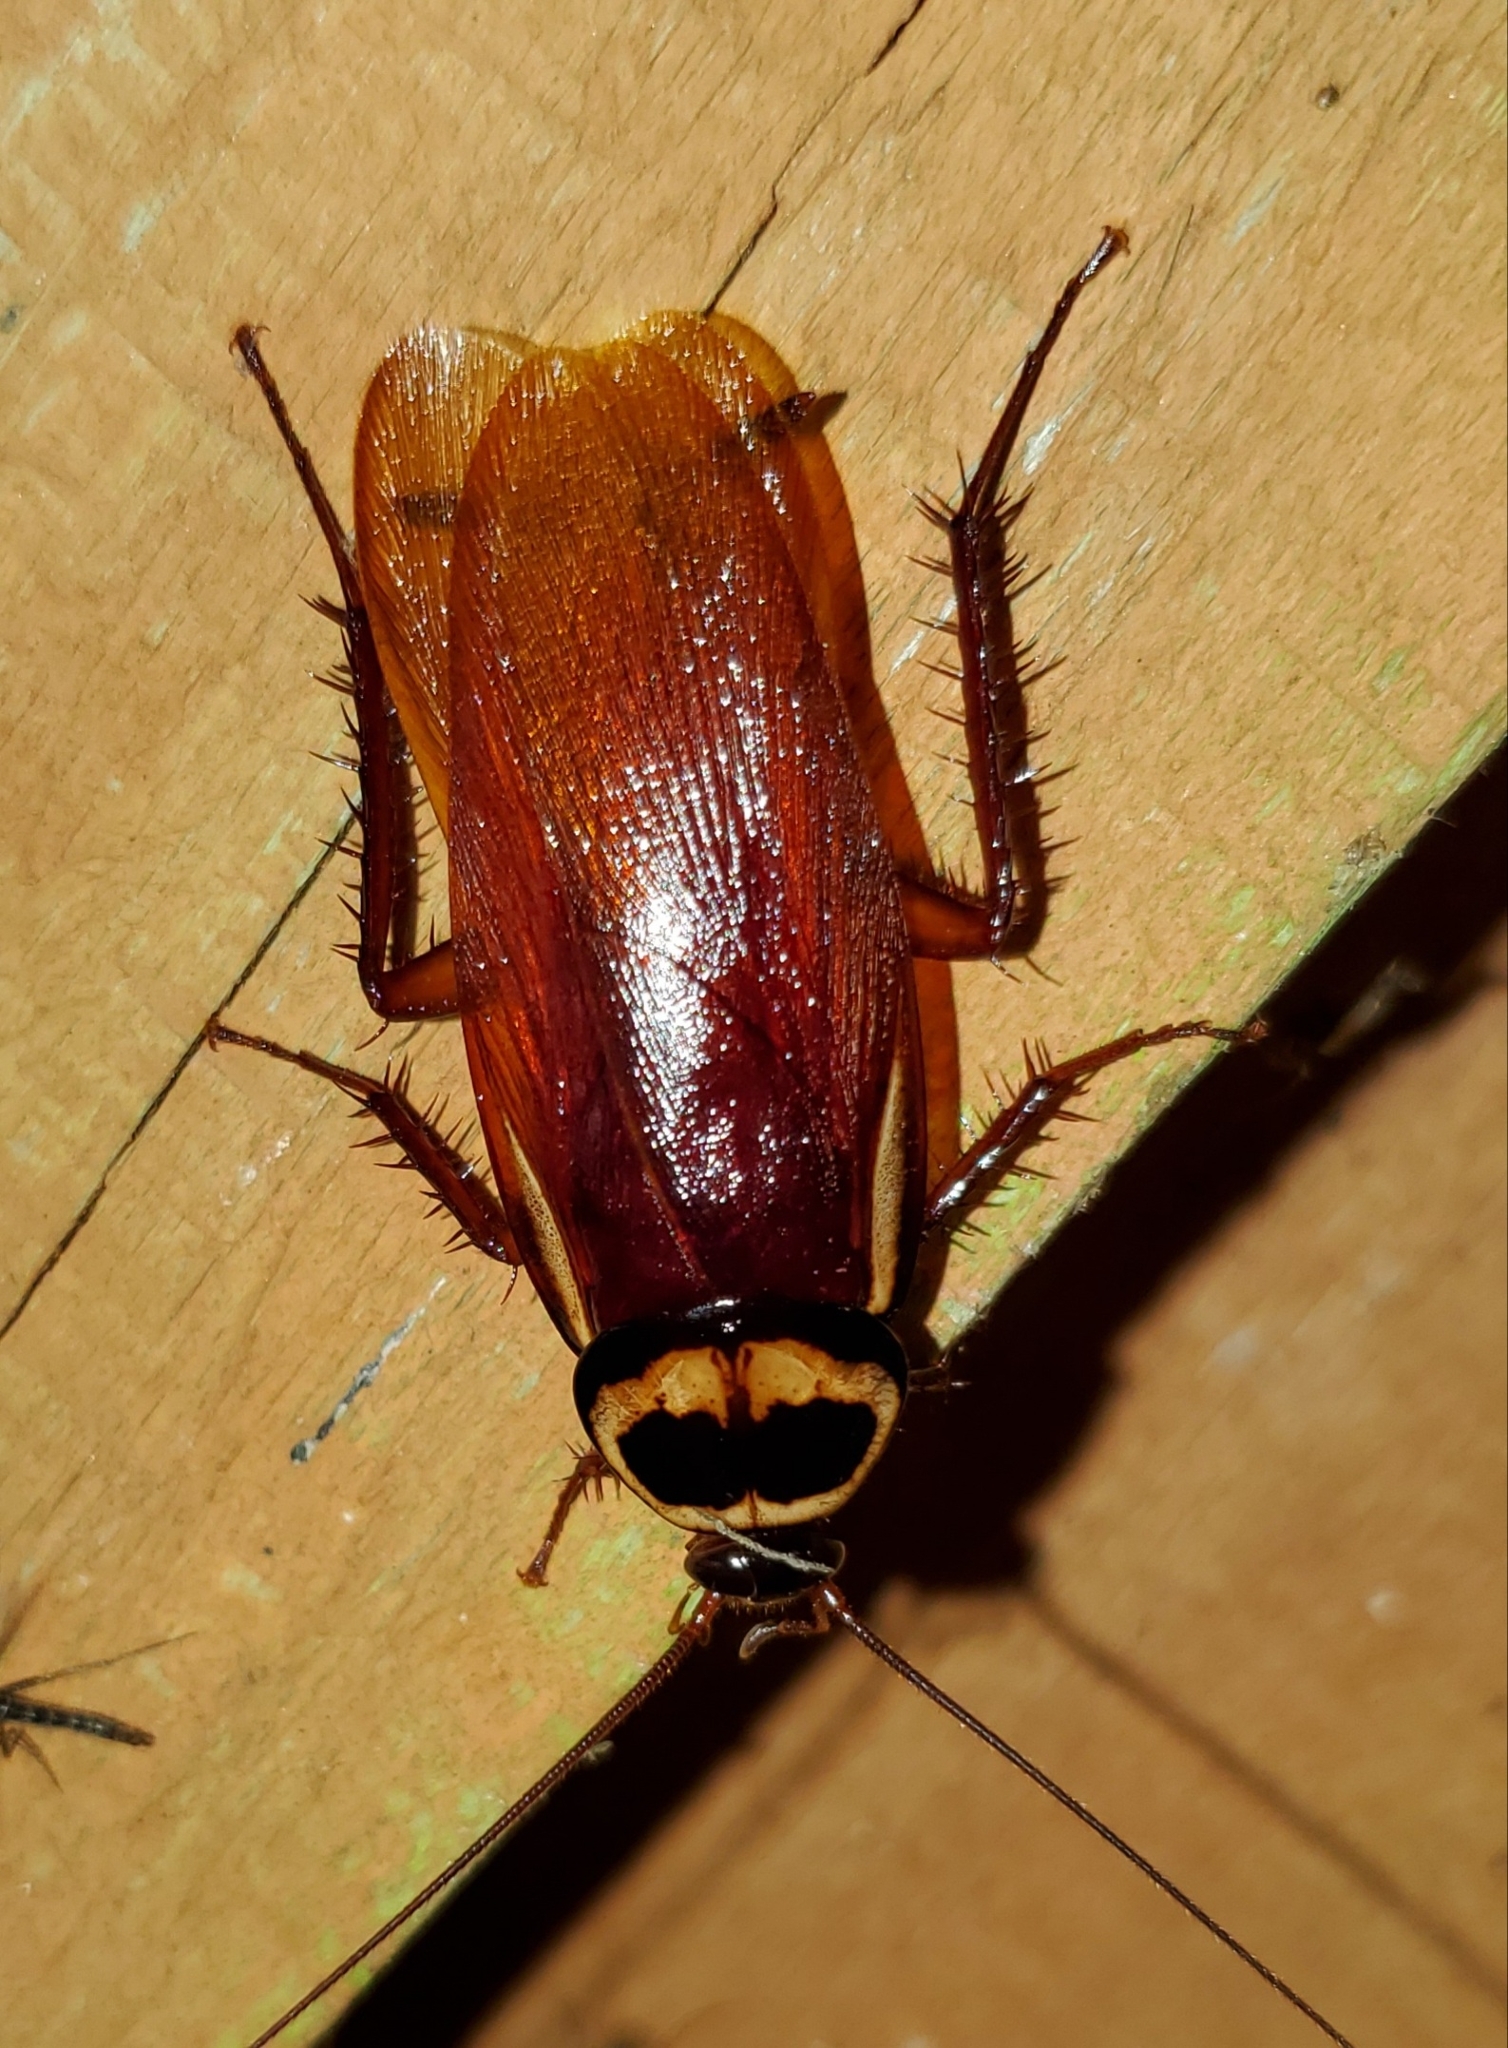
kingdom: Animalia
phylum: Arthropoda
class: Insecta
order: Blattodea
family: Blattidae
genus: Periplaneta
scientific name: Periplaneta australasiae
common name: Australian cockroach
